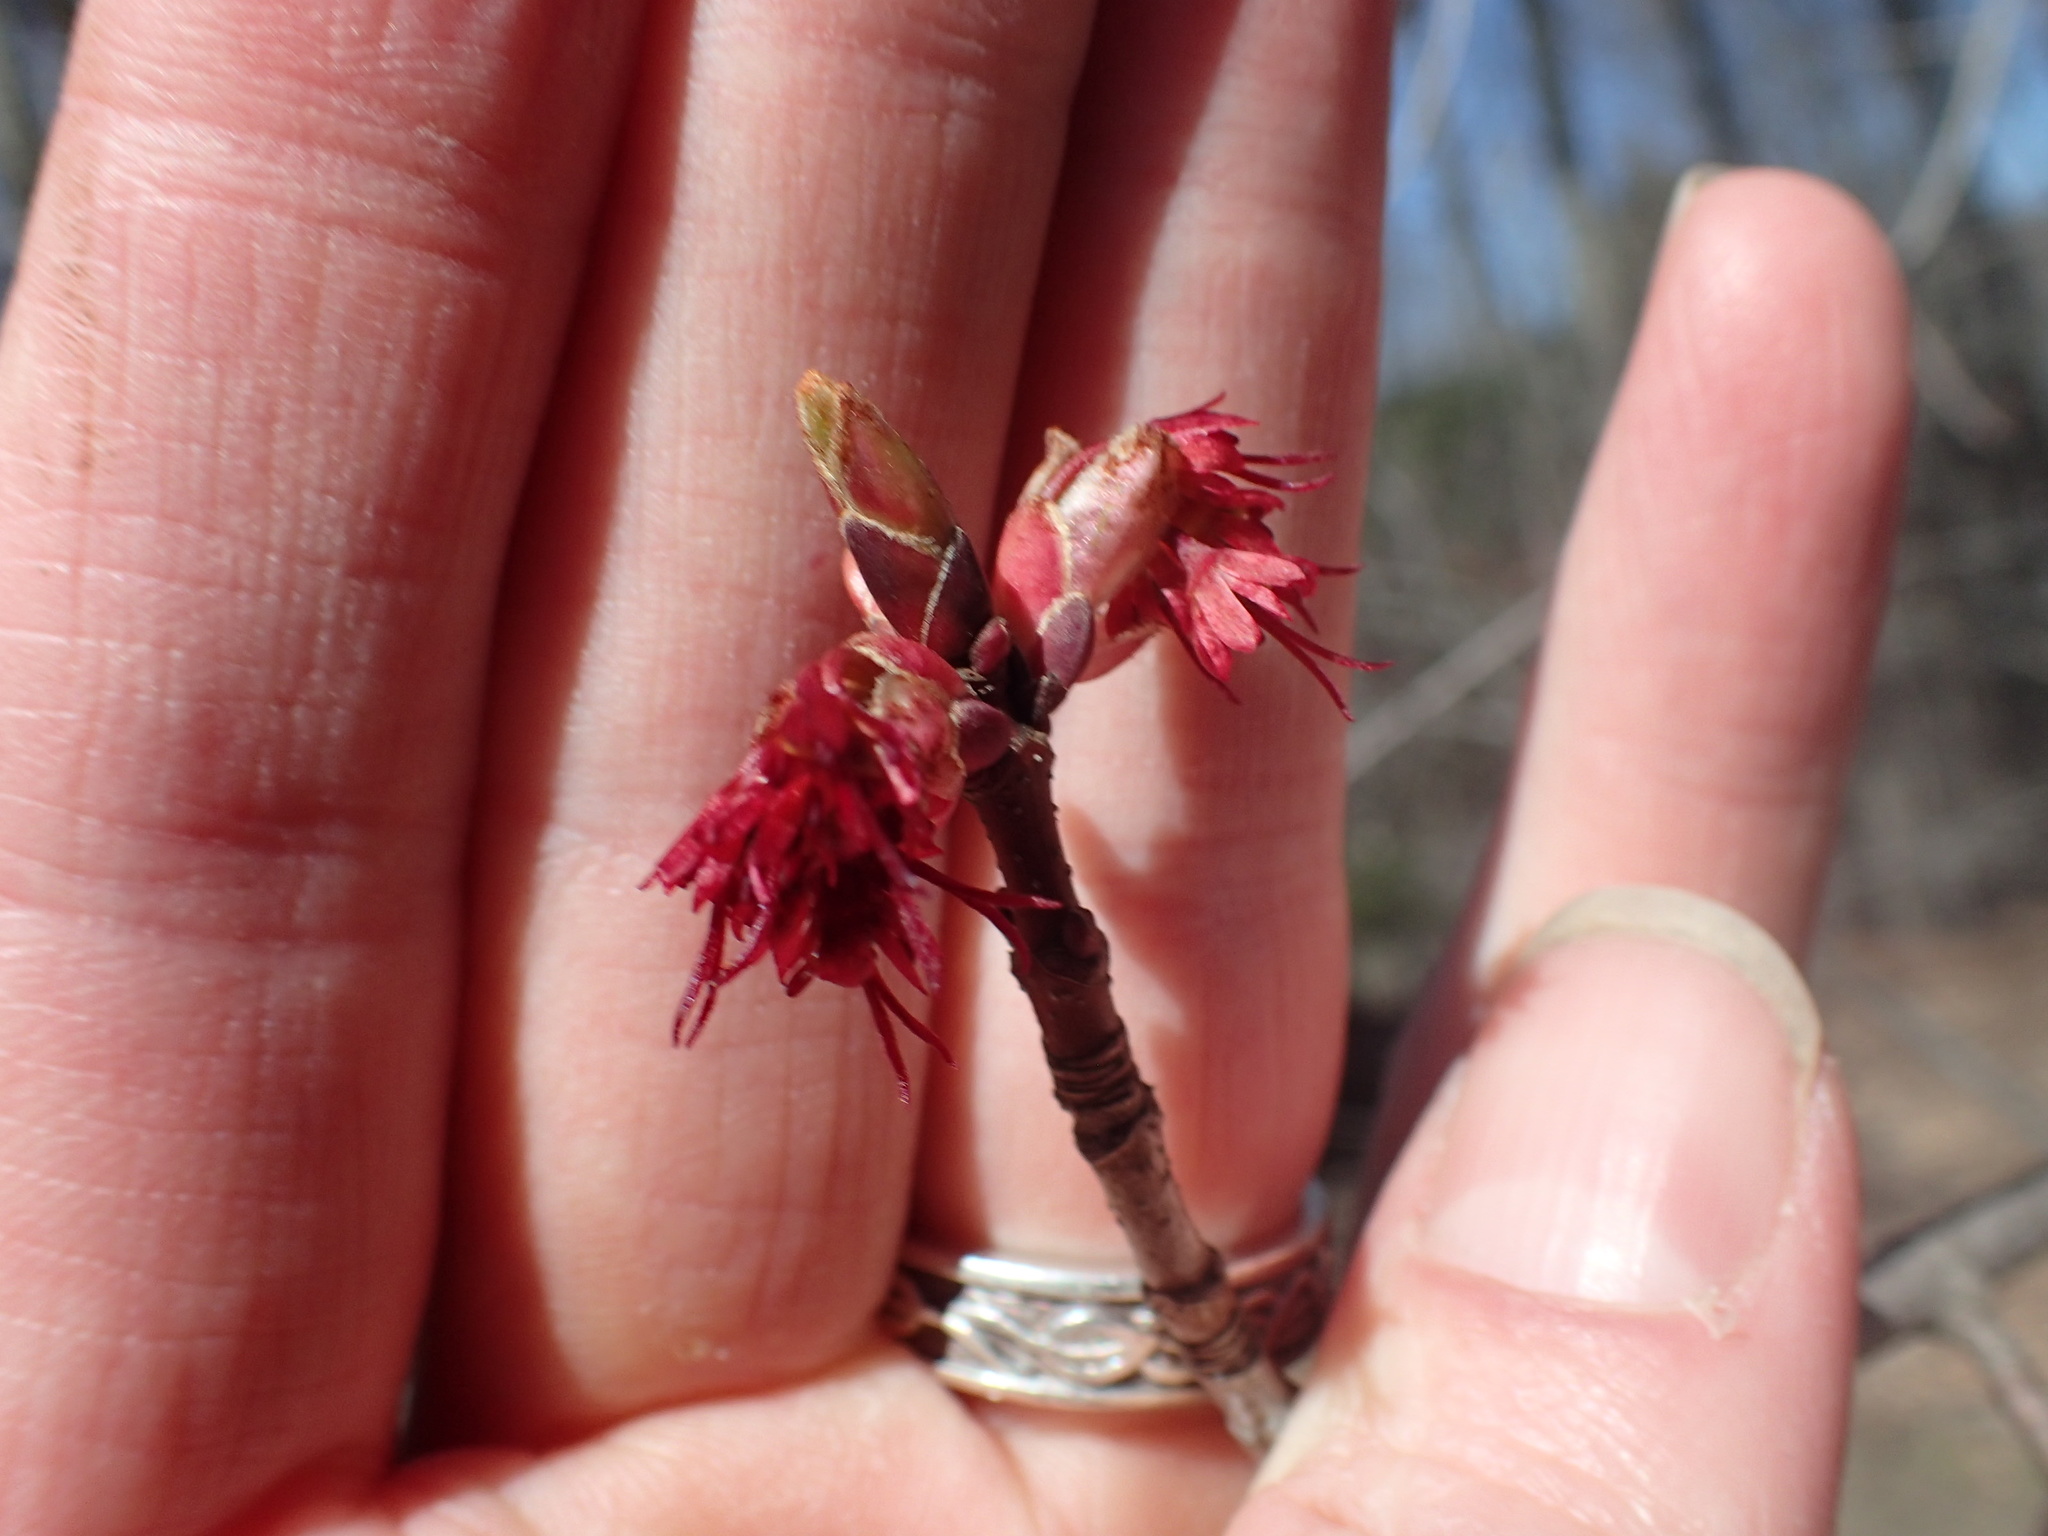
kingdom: Plantae
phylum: Tracheophyta
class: Magnoliopsida
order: Sapindales
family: Sapindaceae
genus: Acer
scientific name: Acer rubrum
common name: Red maple
